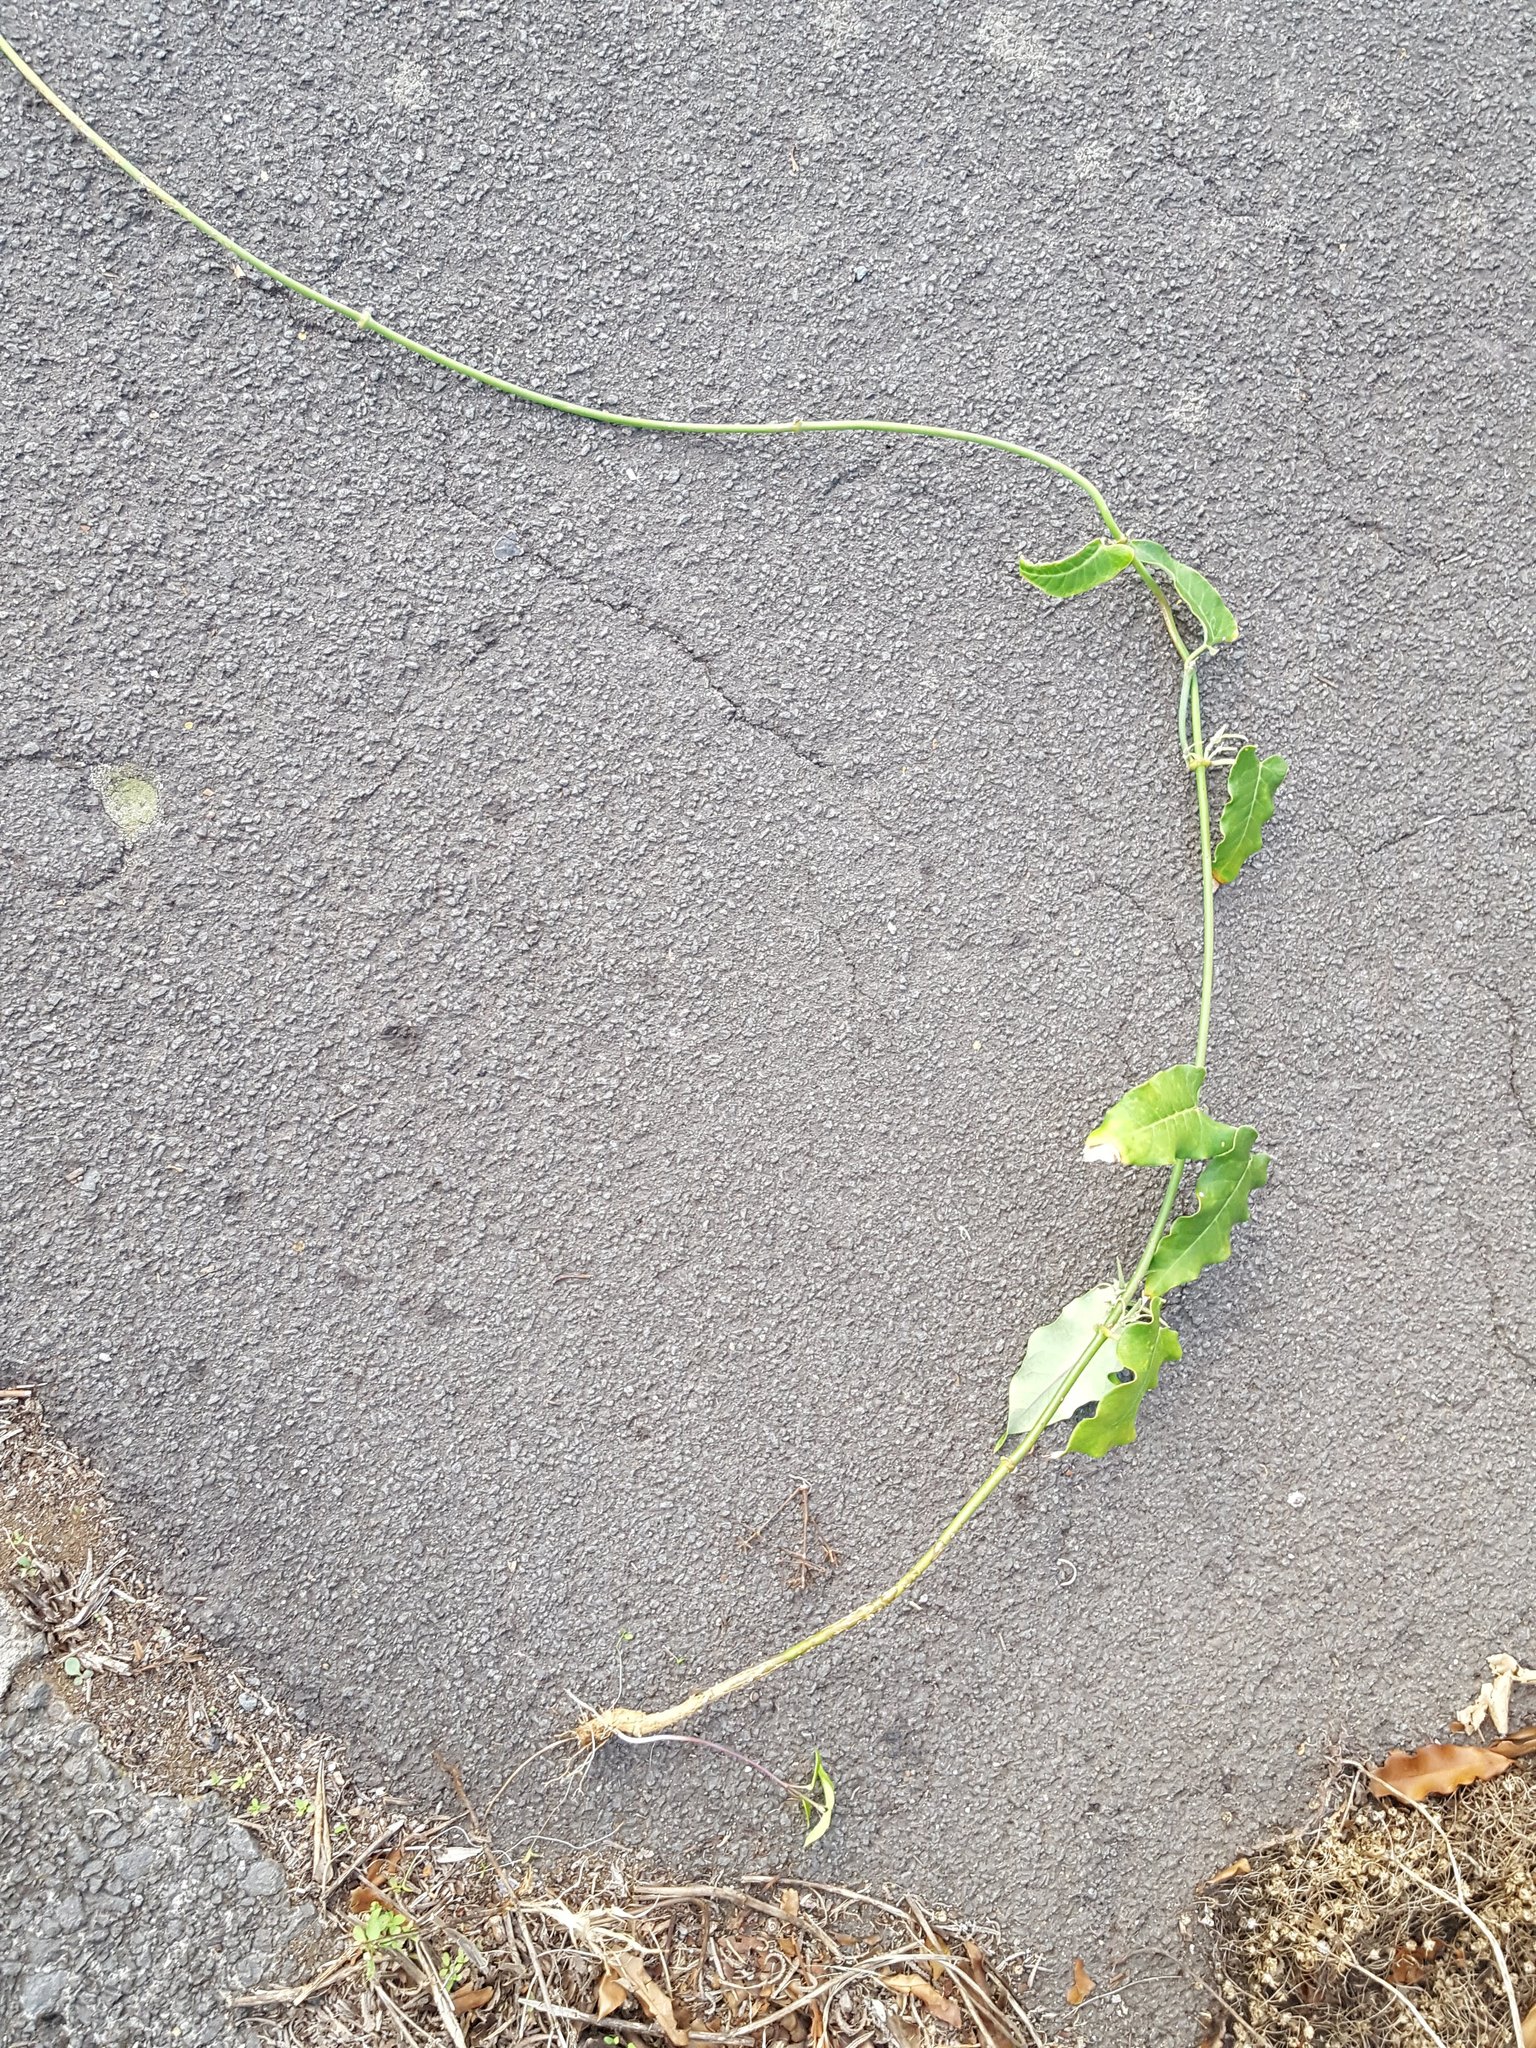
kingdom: Plantae
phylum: Tracheophyta
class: Magnoliopsida
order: Gentianales
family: Apocynaceae
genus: Araujia
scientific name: Araujia sericifera
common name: White bladderflower
